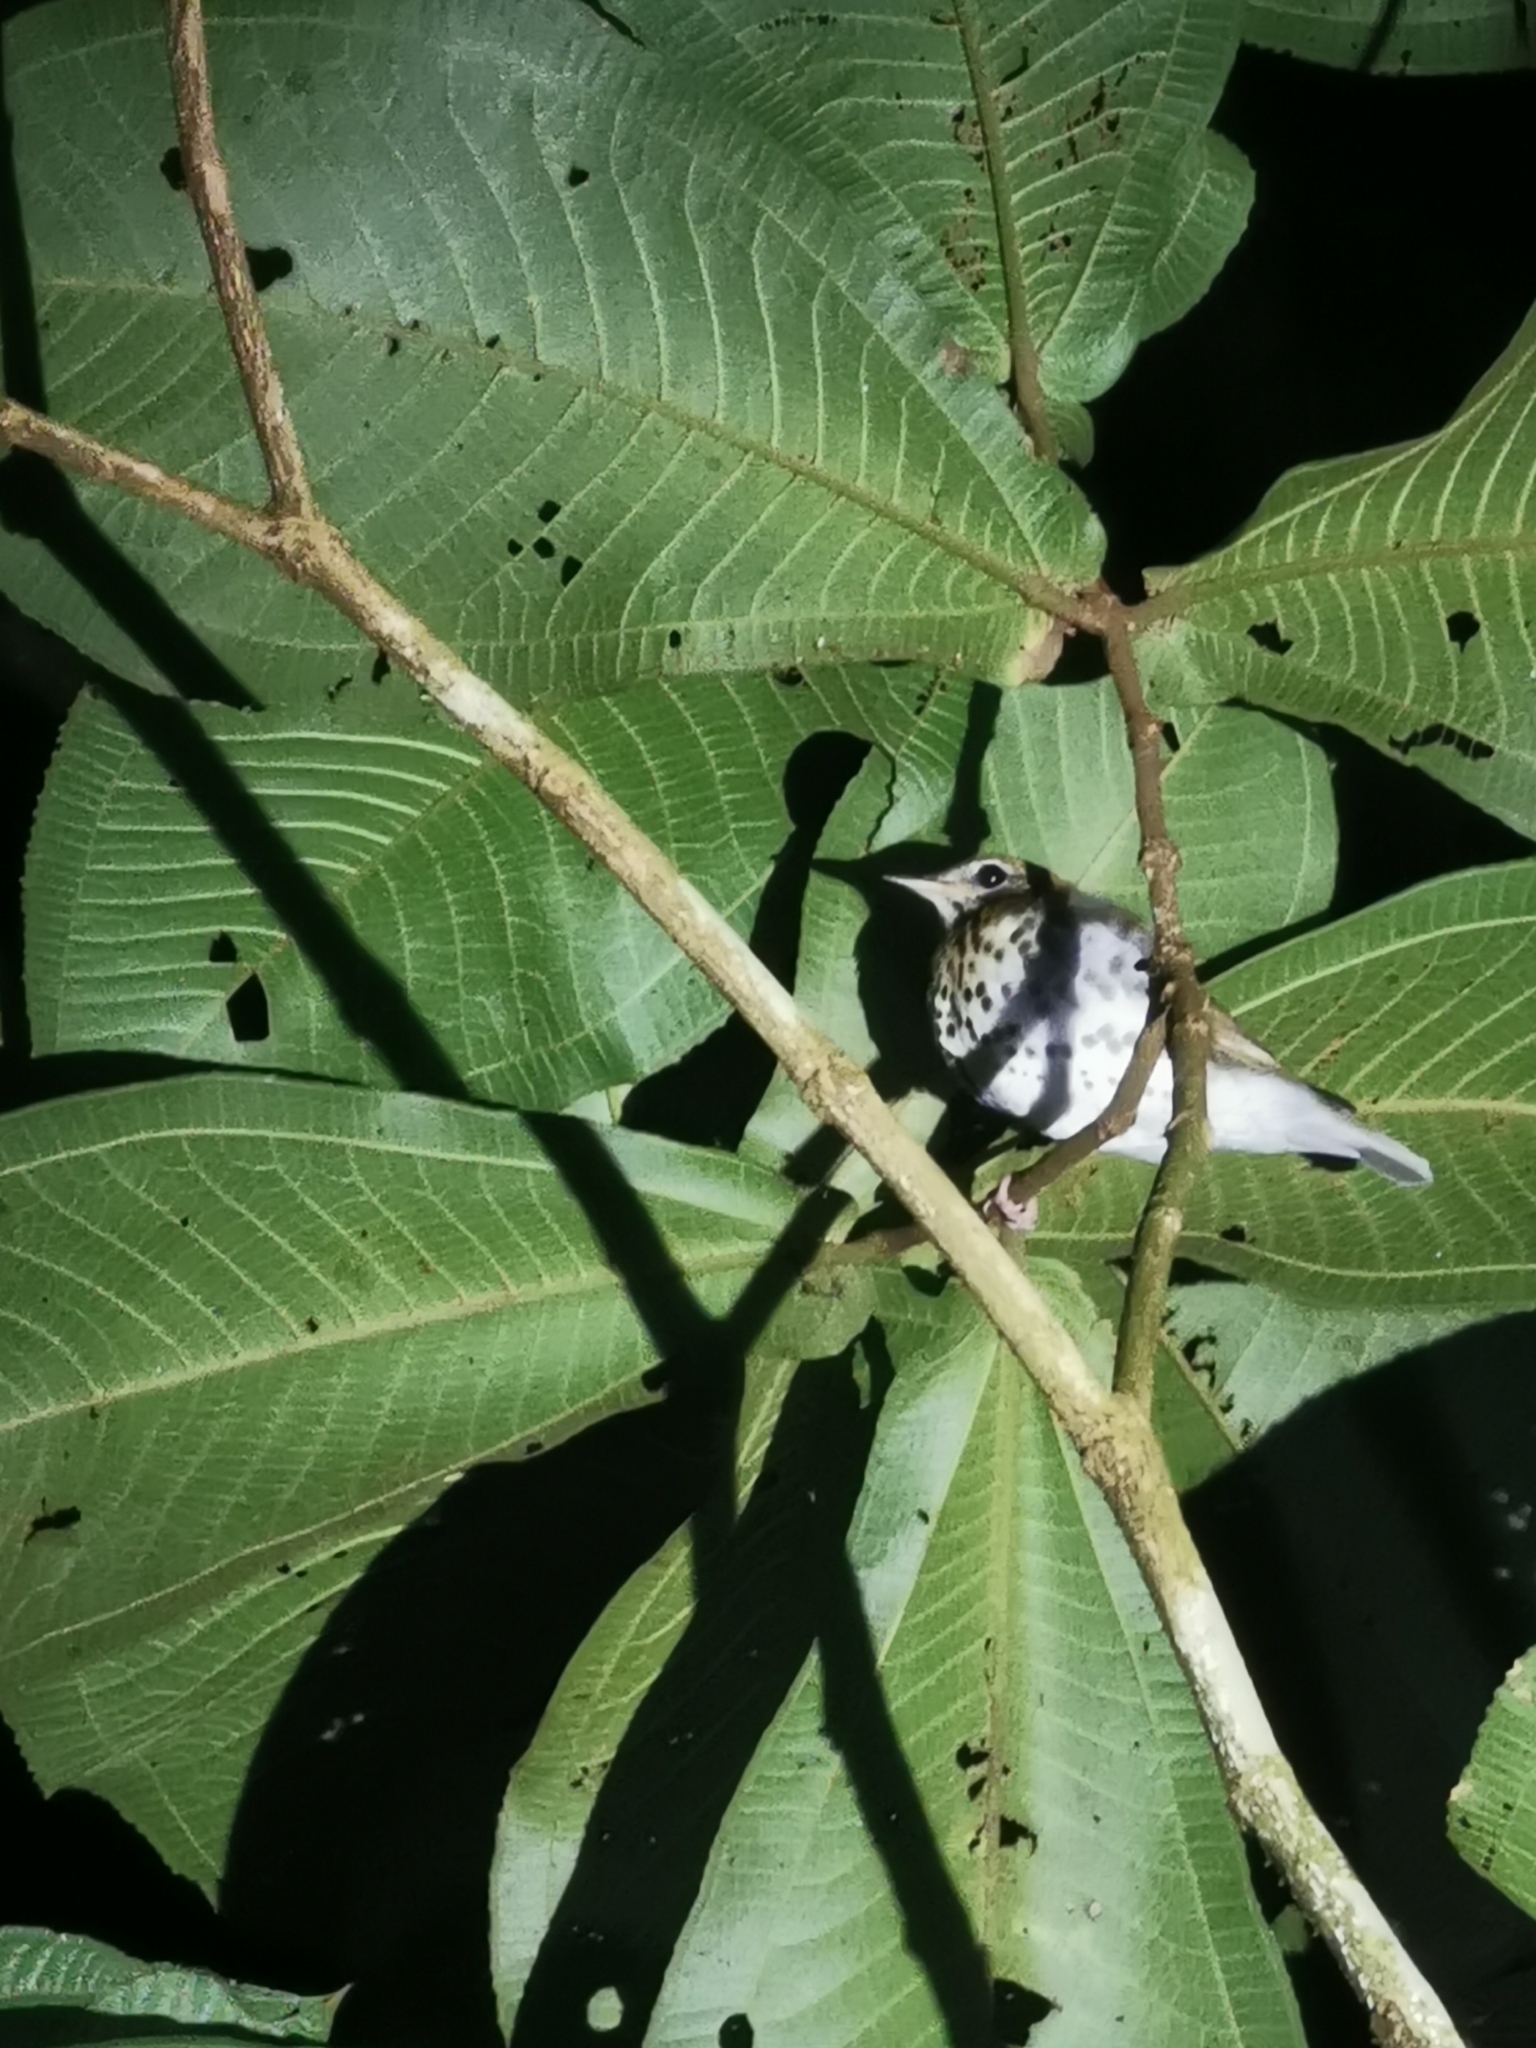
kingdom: Animalia
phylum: Chordata
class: Aves
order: Passeriformes
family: Turdidae
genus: Hylocichla
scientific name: Hylocichla mustelina
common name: Wood thrush
